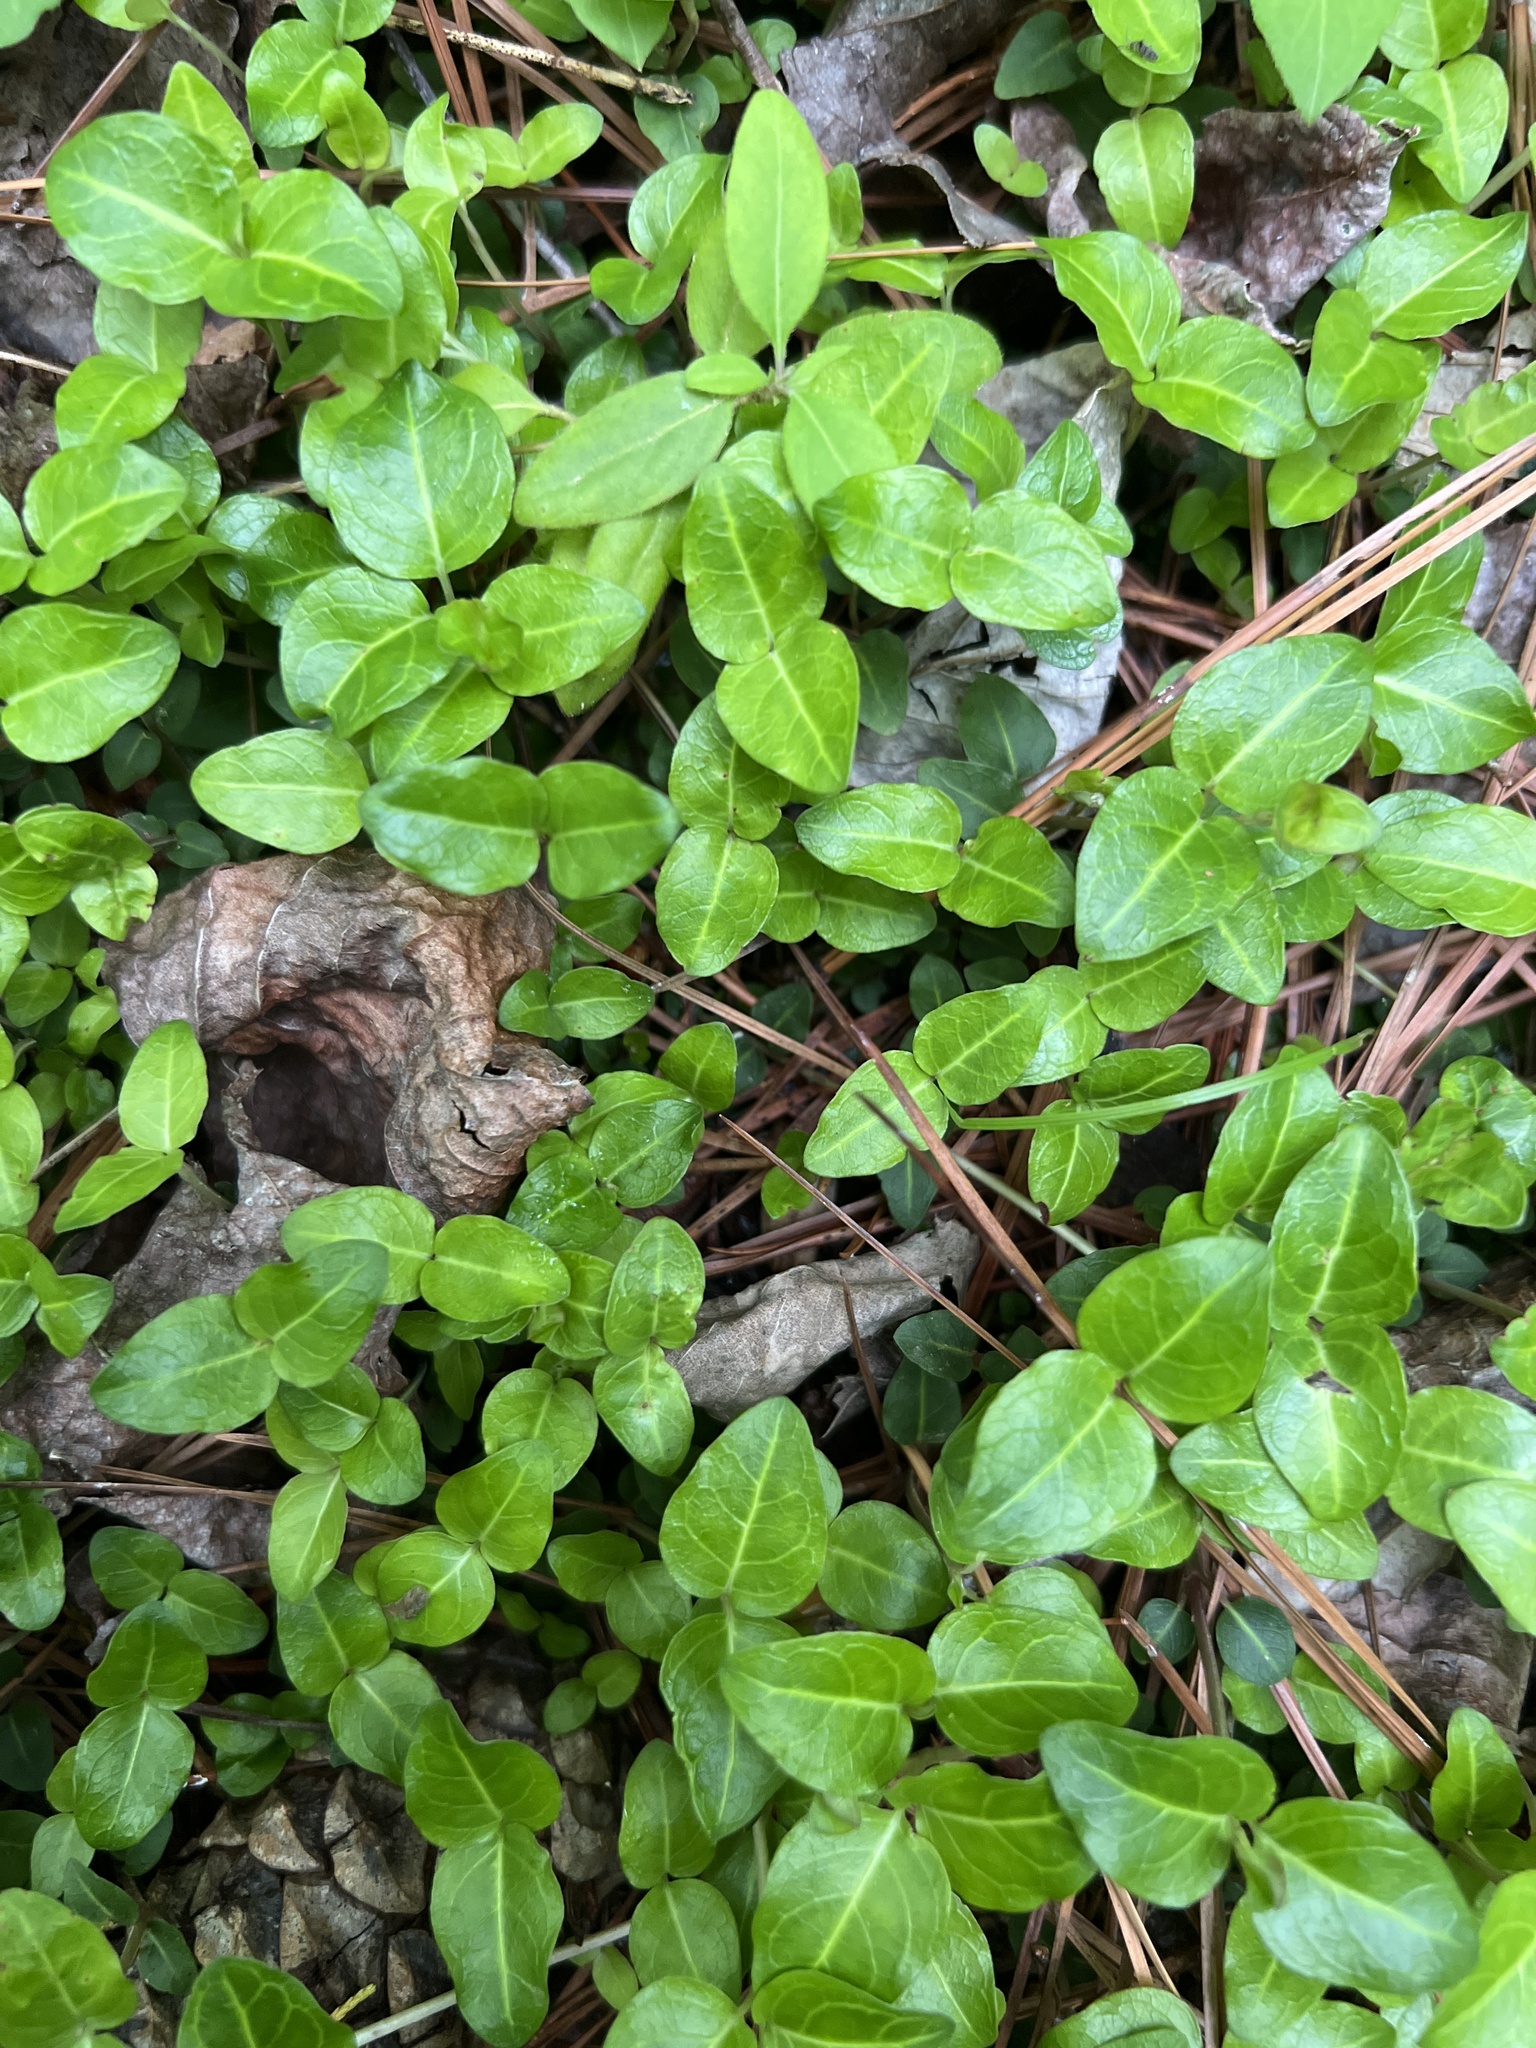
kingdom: Plantae
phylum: Tracheophyta
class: Magnoliopsida
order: Gentianales
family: Rubiaceae
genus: Mitchella
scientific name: Mitchella repens
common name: Partridge-berry
